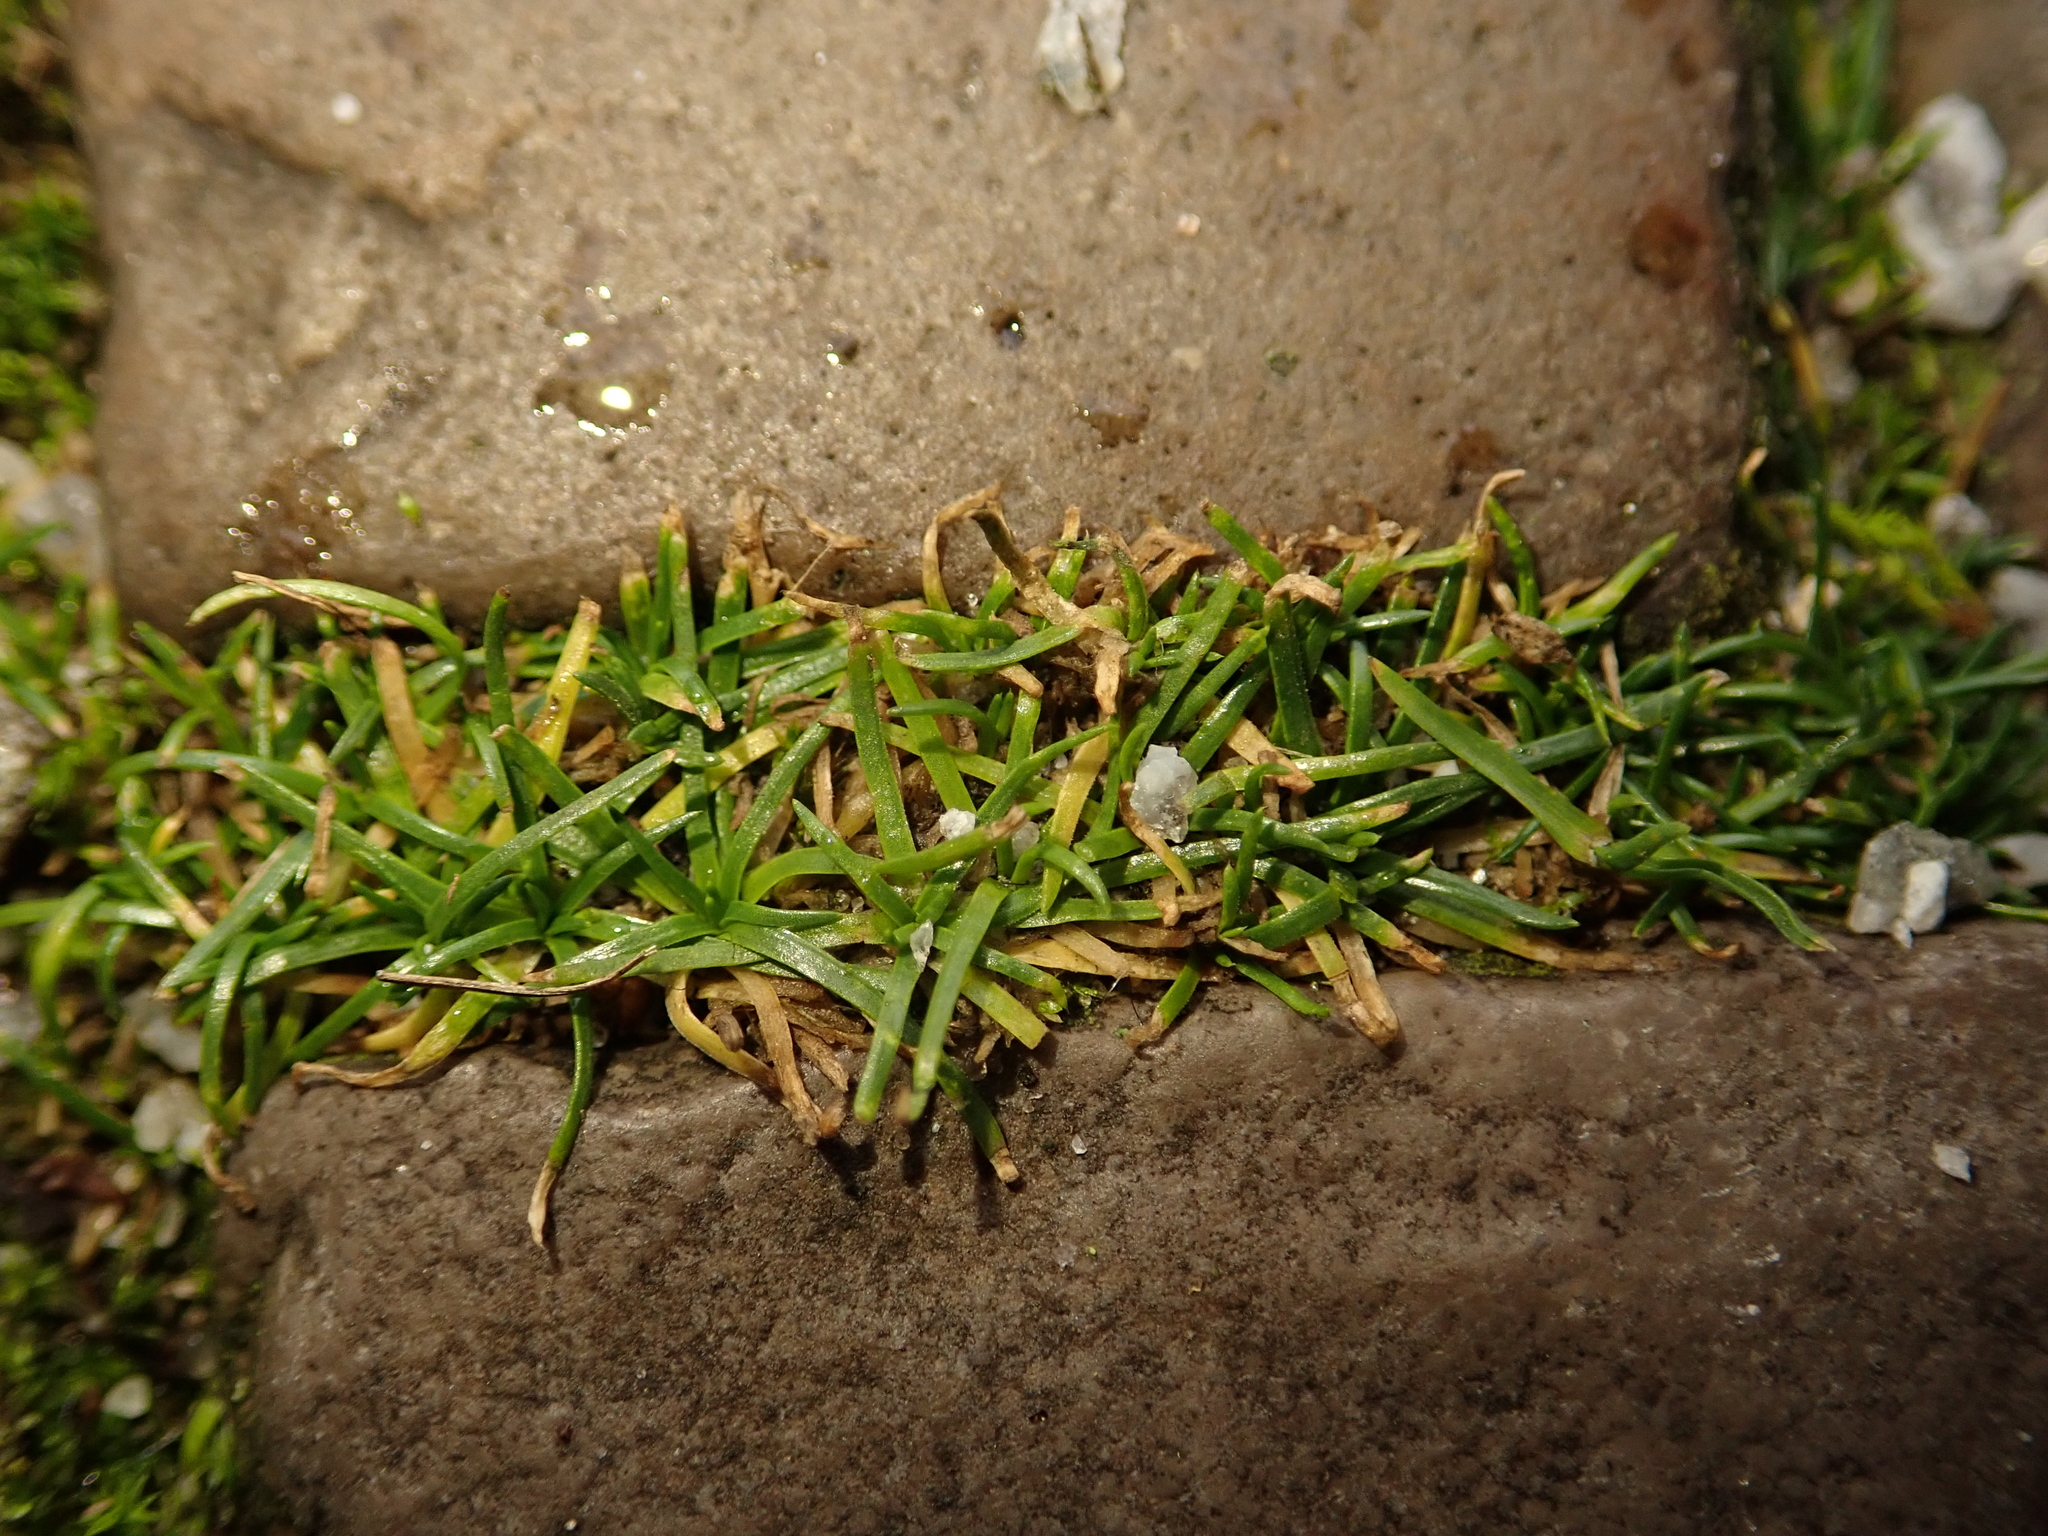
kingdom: Plantae
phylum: Tracheophyta
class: Magnoliopsida
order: Caryophyllales
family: Caryophyllaceae
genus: Sagina
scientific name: Sagina procumbens
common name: Procumbent pearlwort
